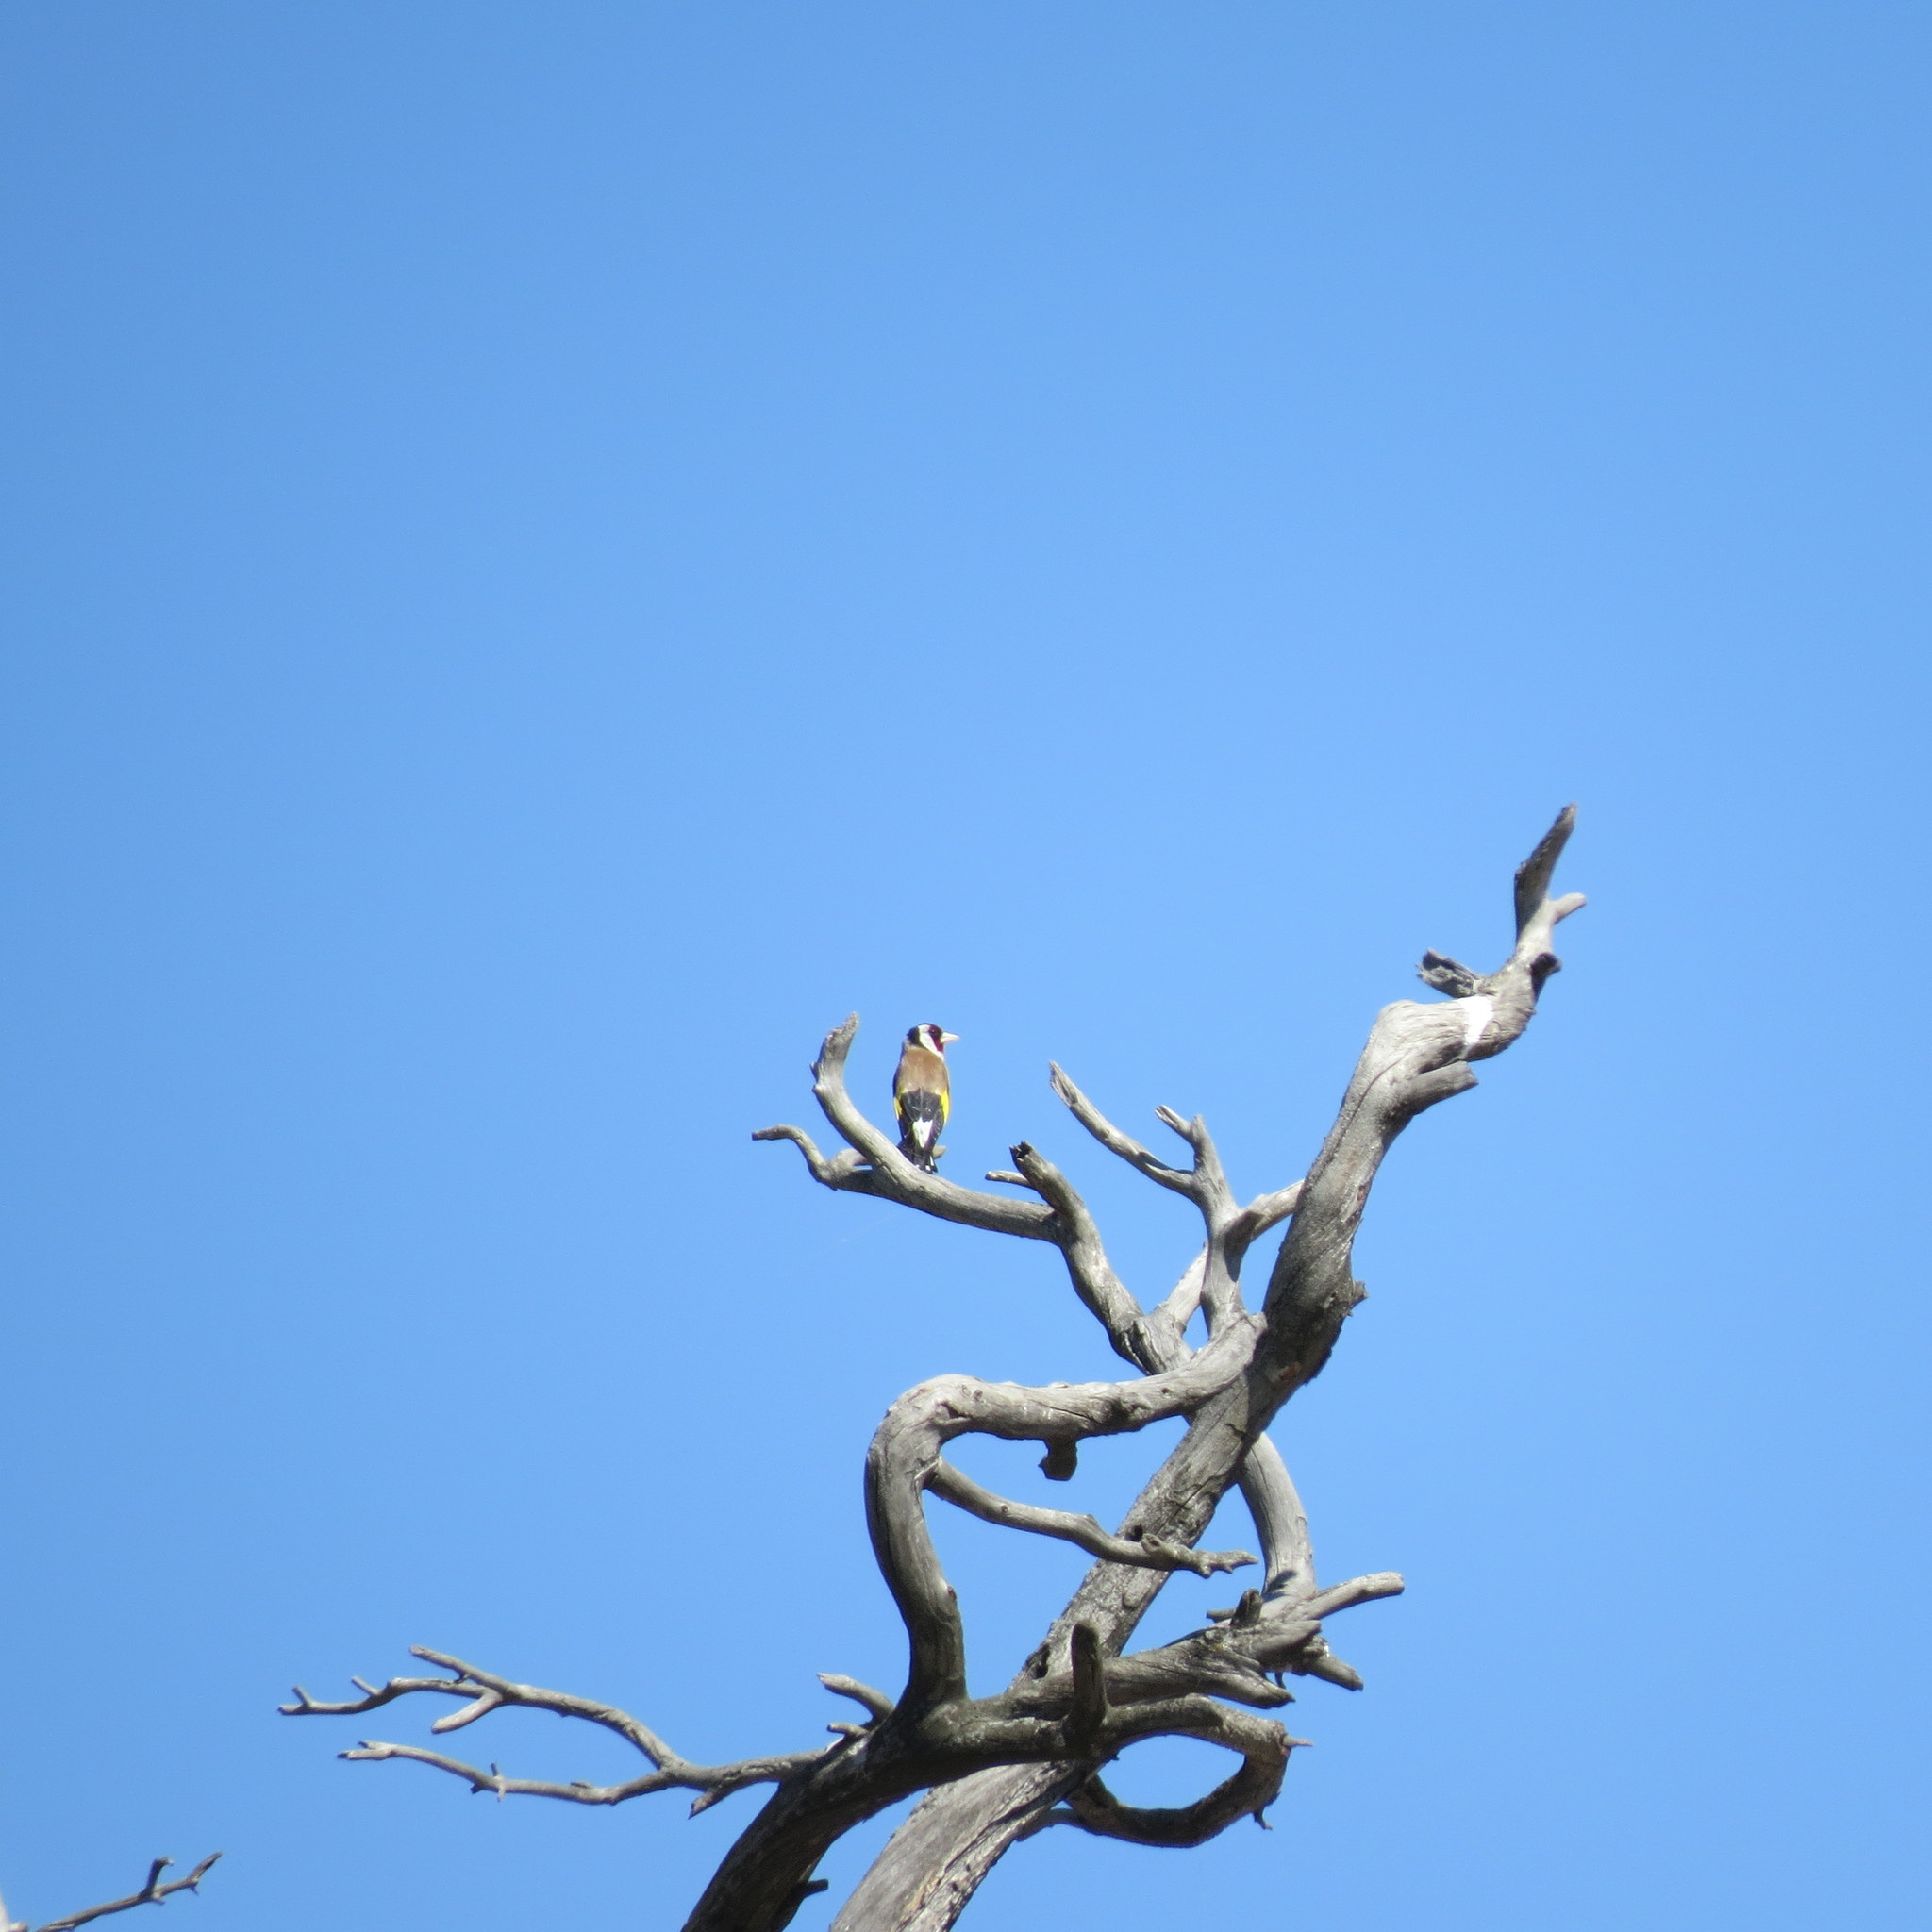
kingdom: Animalia
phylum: Chordata
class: Aves
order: Passeriformes
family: Fringillidae
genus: Carduelis
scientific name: Carduelis carduelis
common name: European goldfinch
